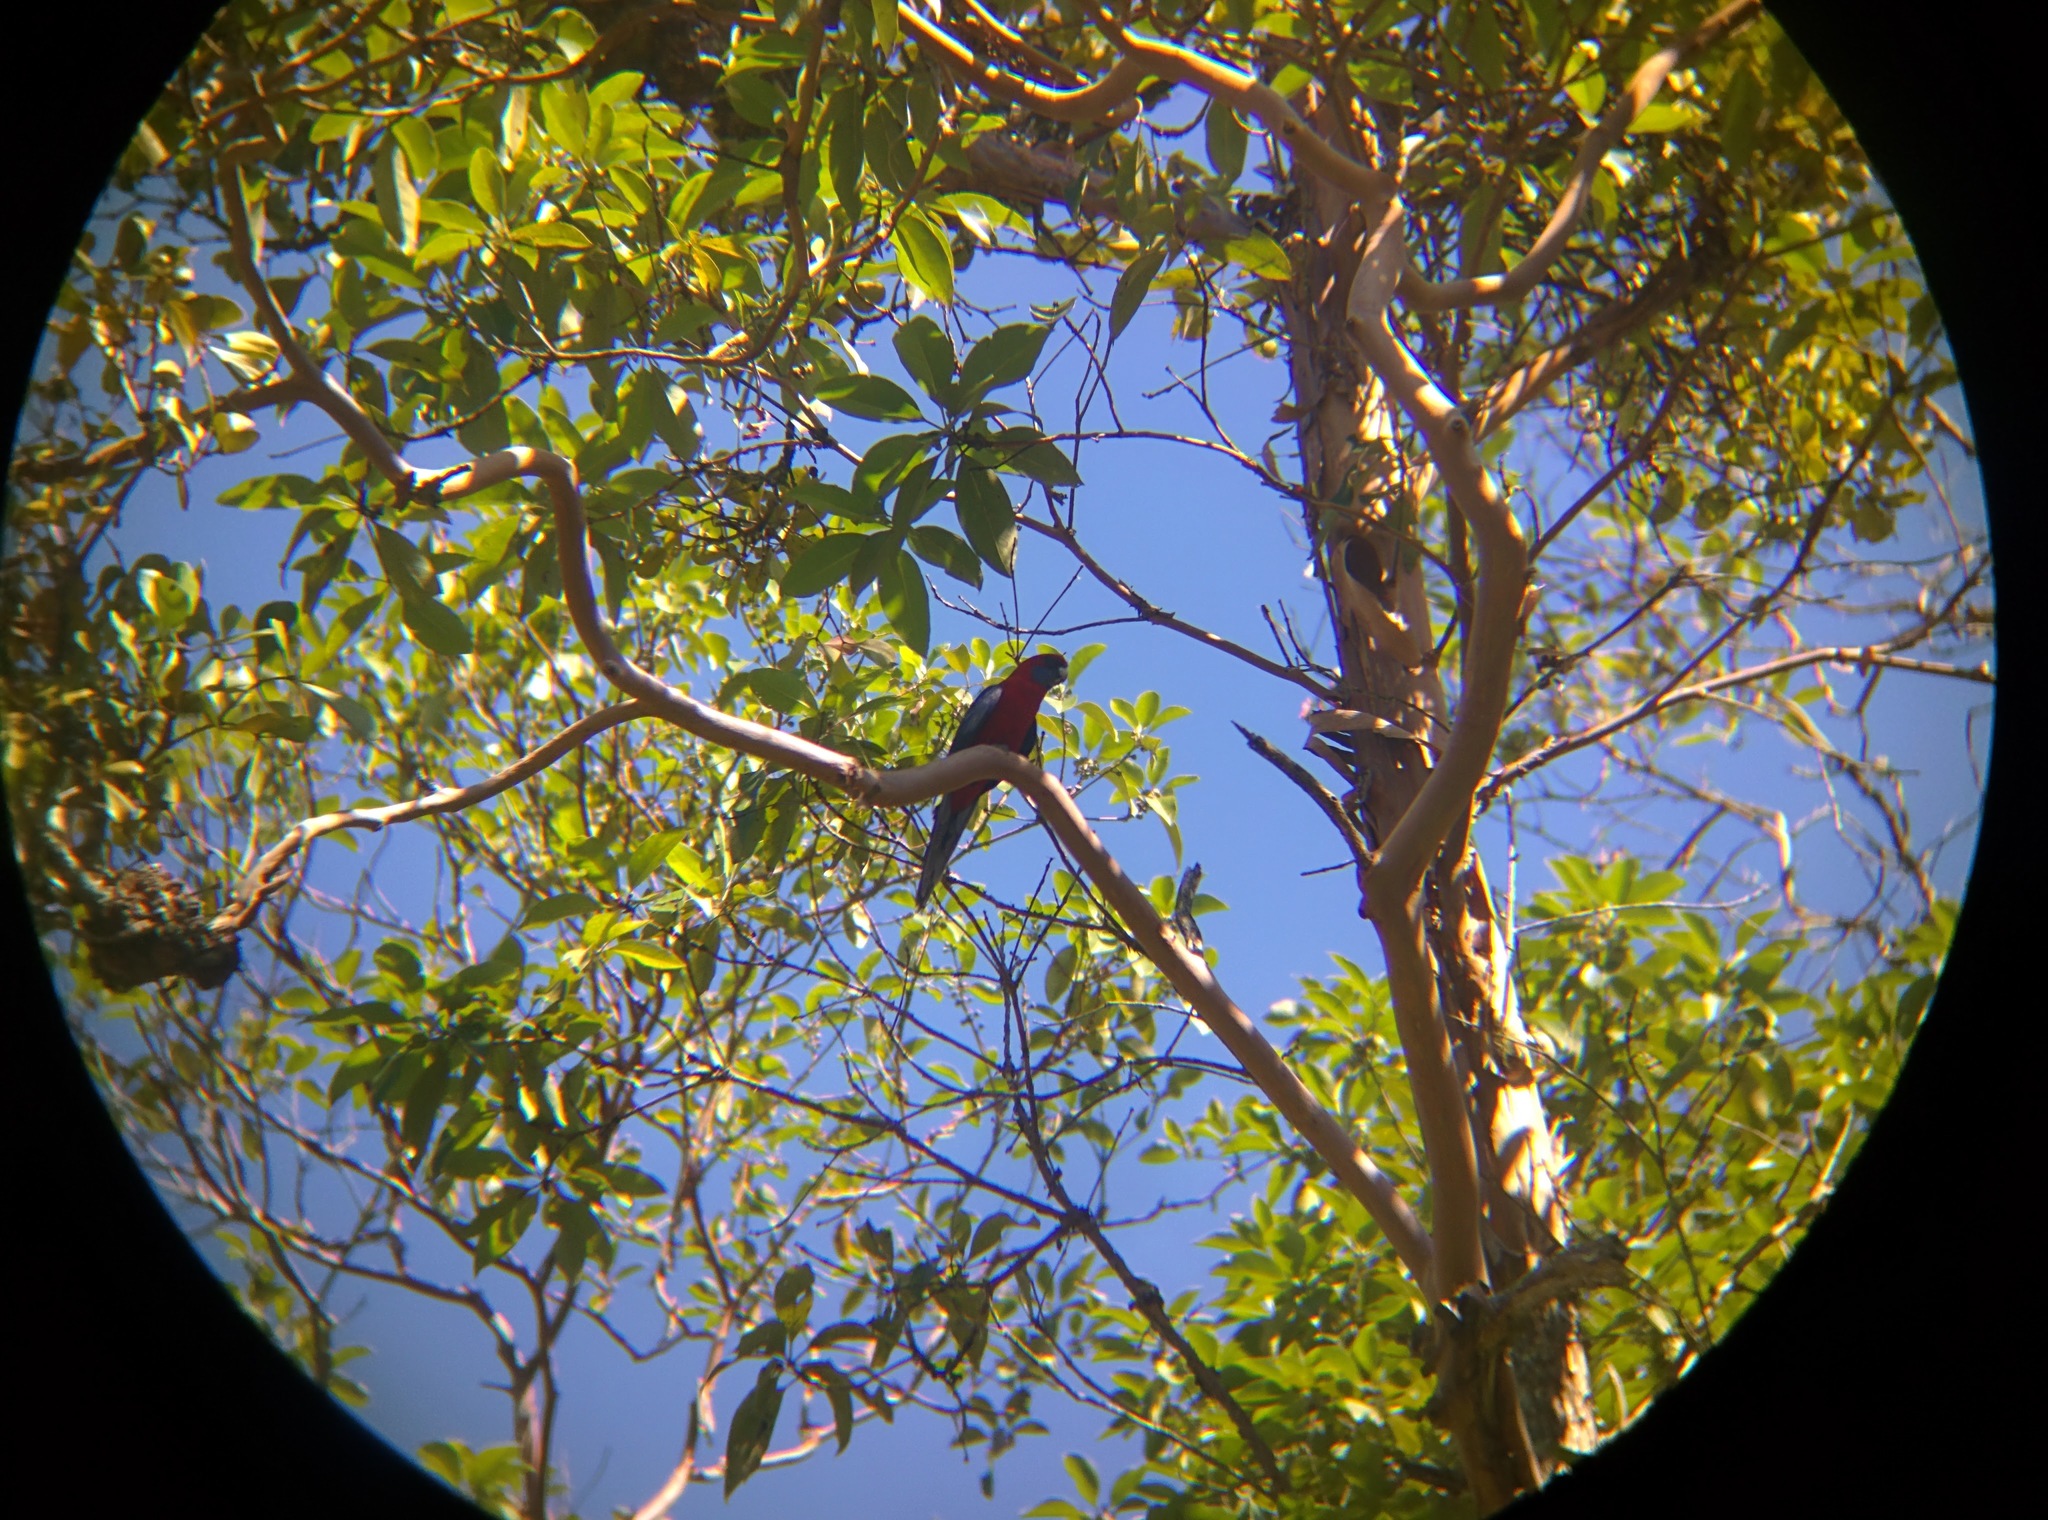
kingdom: Animalia
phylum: Chordata
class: Aves
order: Psittaciformes
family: Psittacidae
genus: Platycercus
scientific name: Platycercus elegans
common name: Crimson rosella
